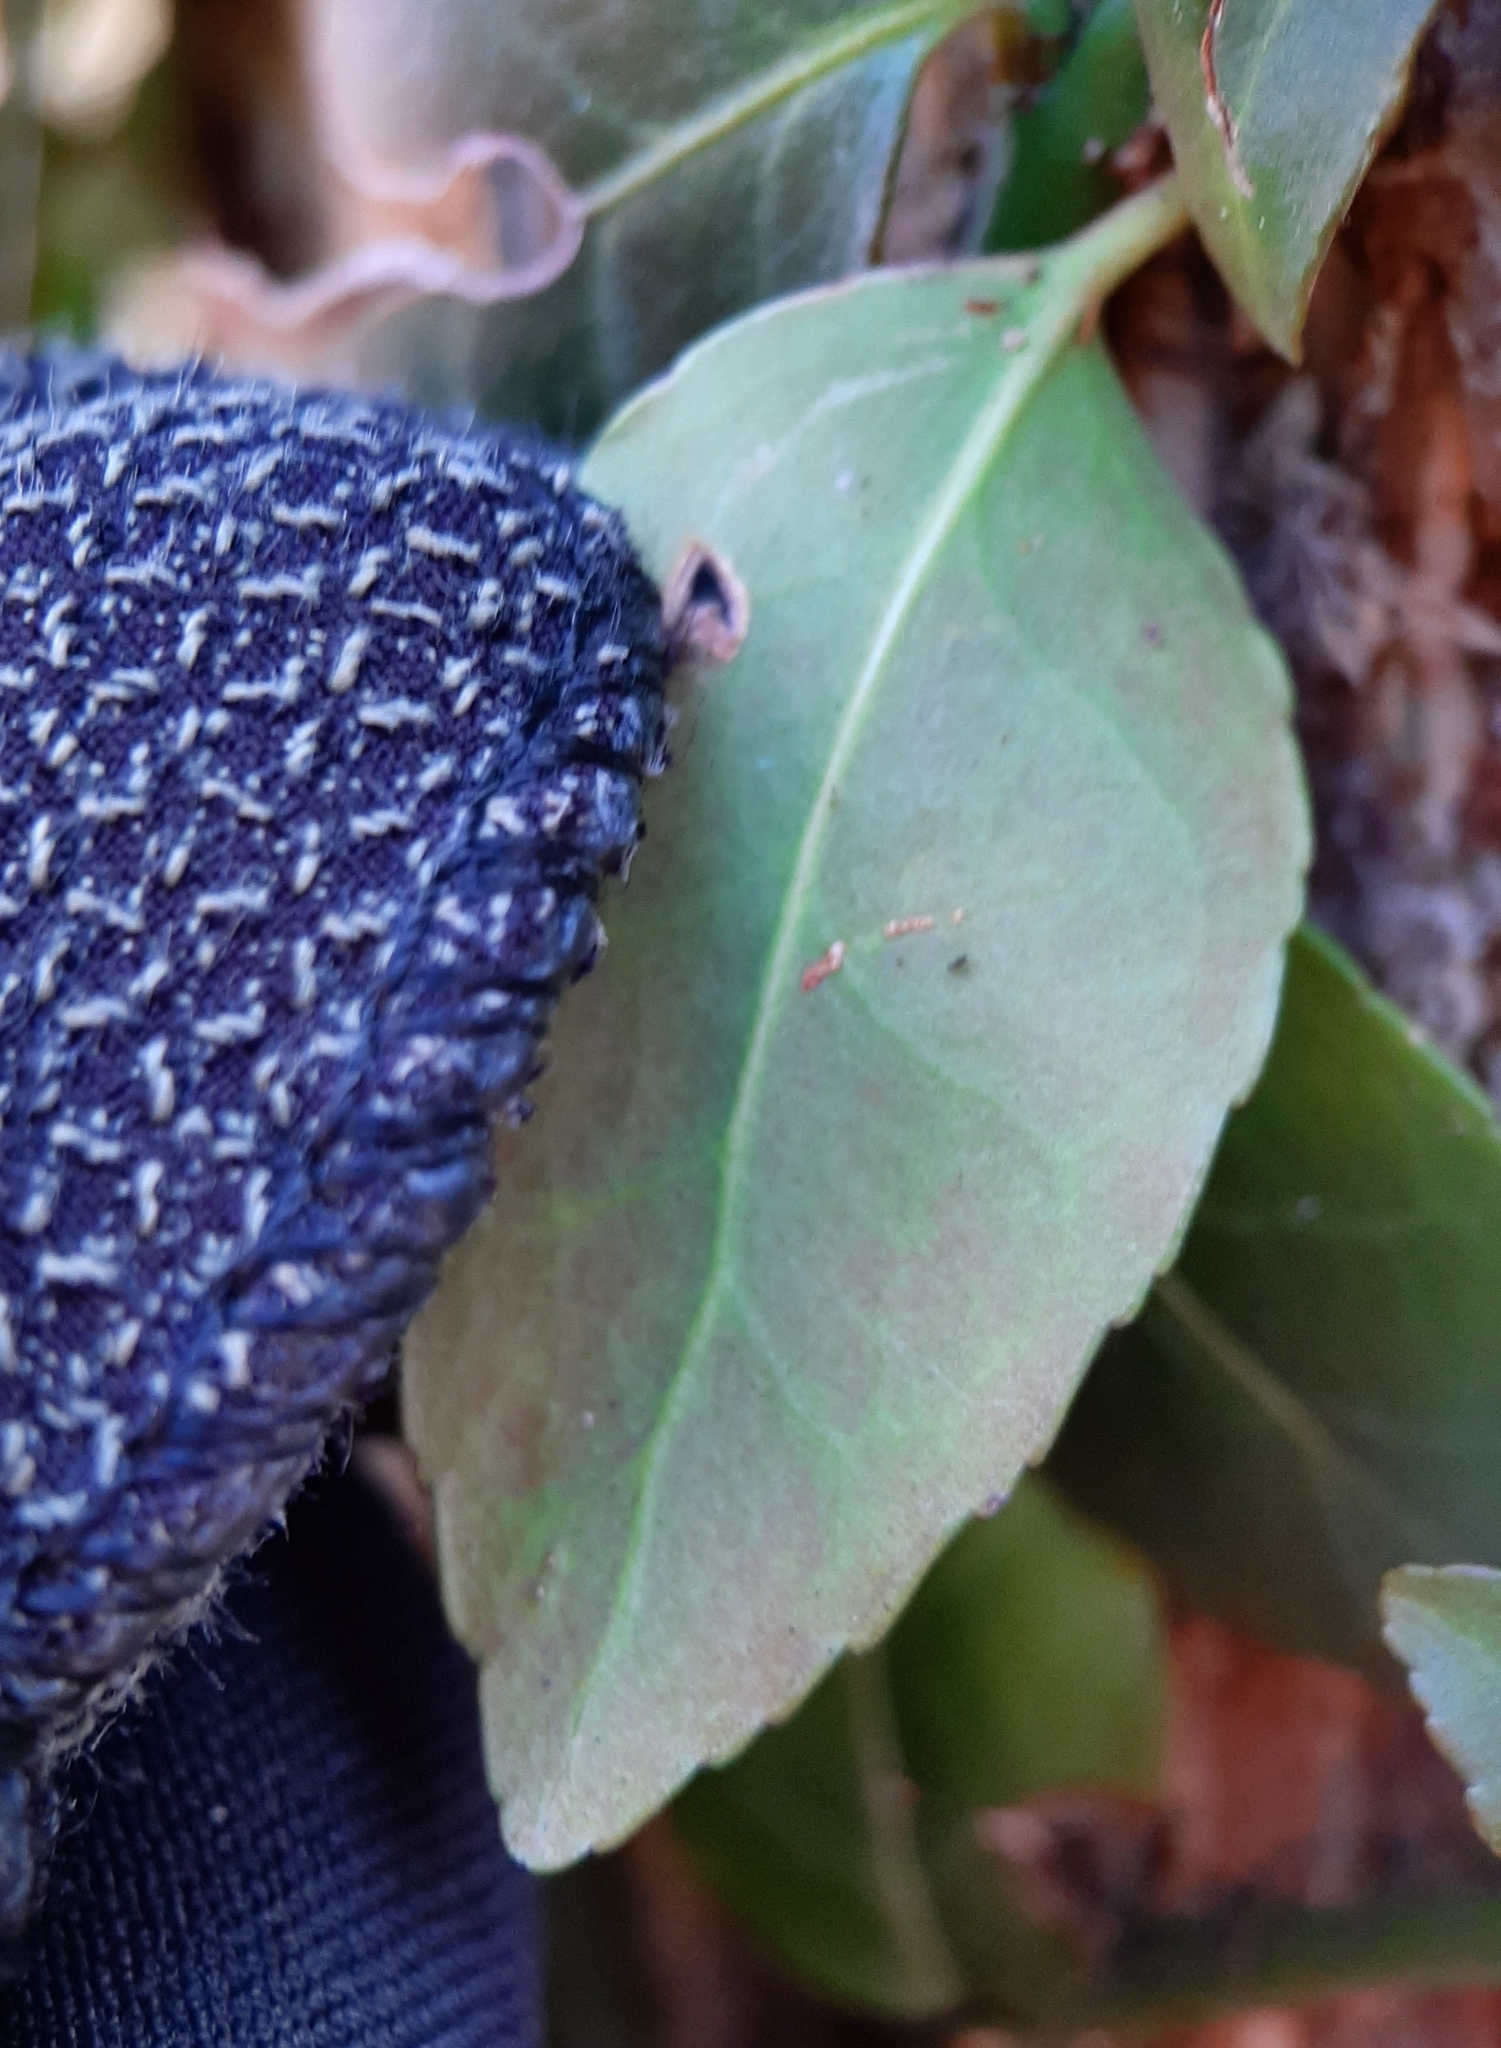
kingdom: Plantae
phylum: Tracheophyta
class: Magnoliopsida
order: Celastrales
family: Celastraceae
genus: Euonymus
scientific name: Euonymus fortunei
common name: Climbing euonymus
